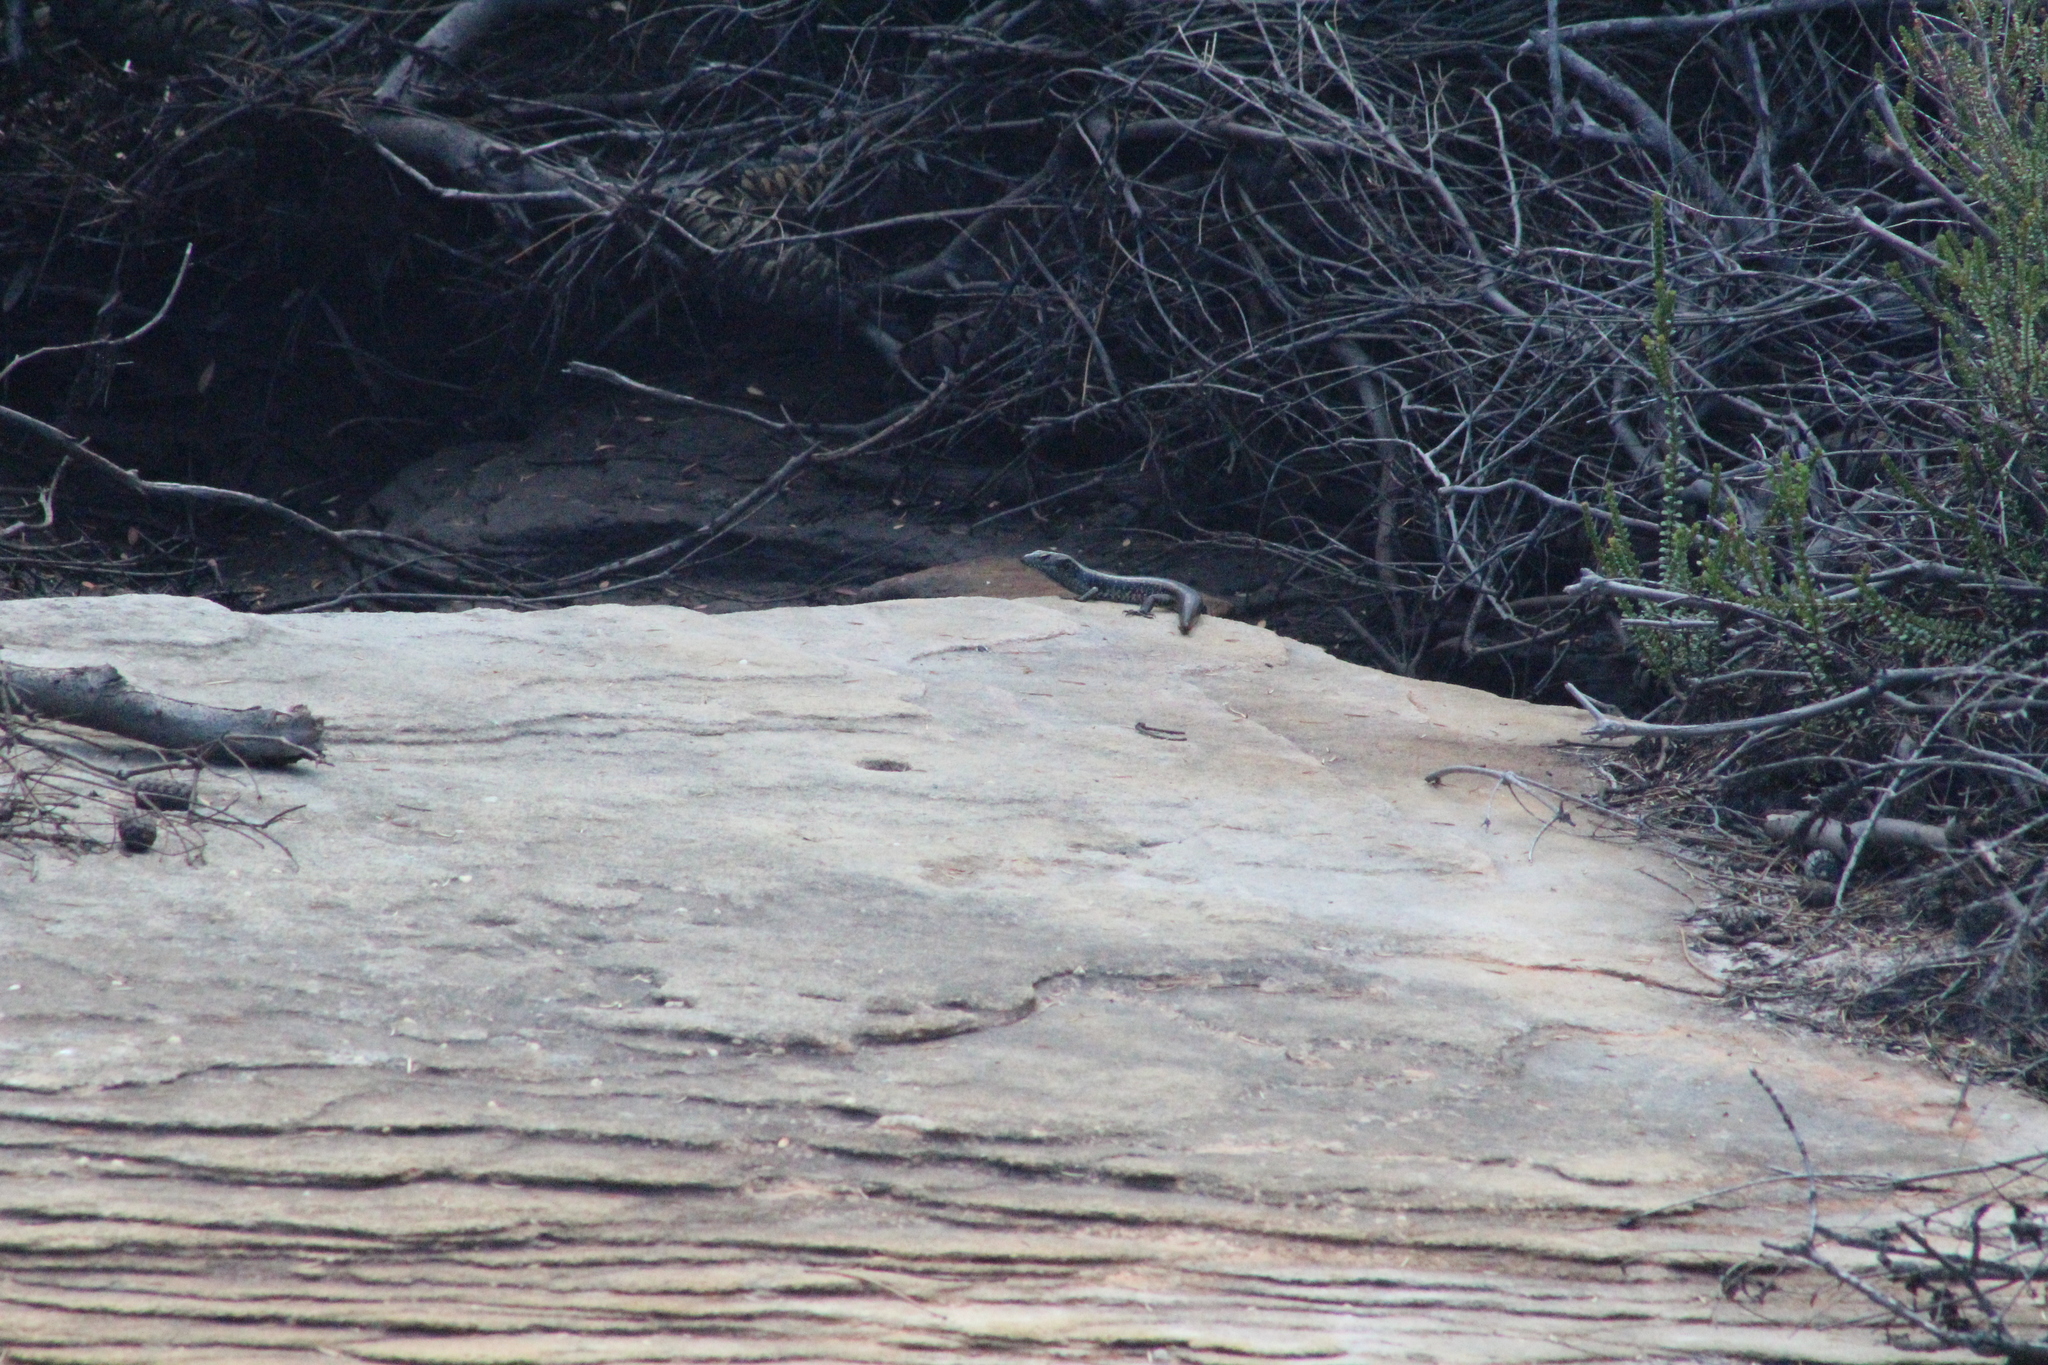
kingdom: Animalia
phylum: Chordata
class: Squamata
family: Scincidae
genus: Eulamprus
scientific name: Eulamprus
